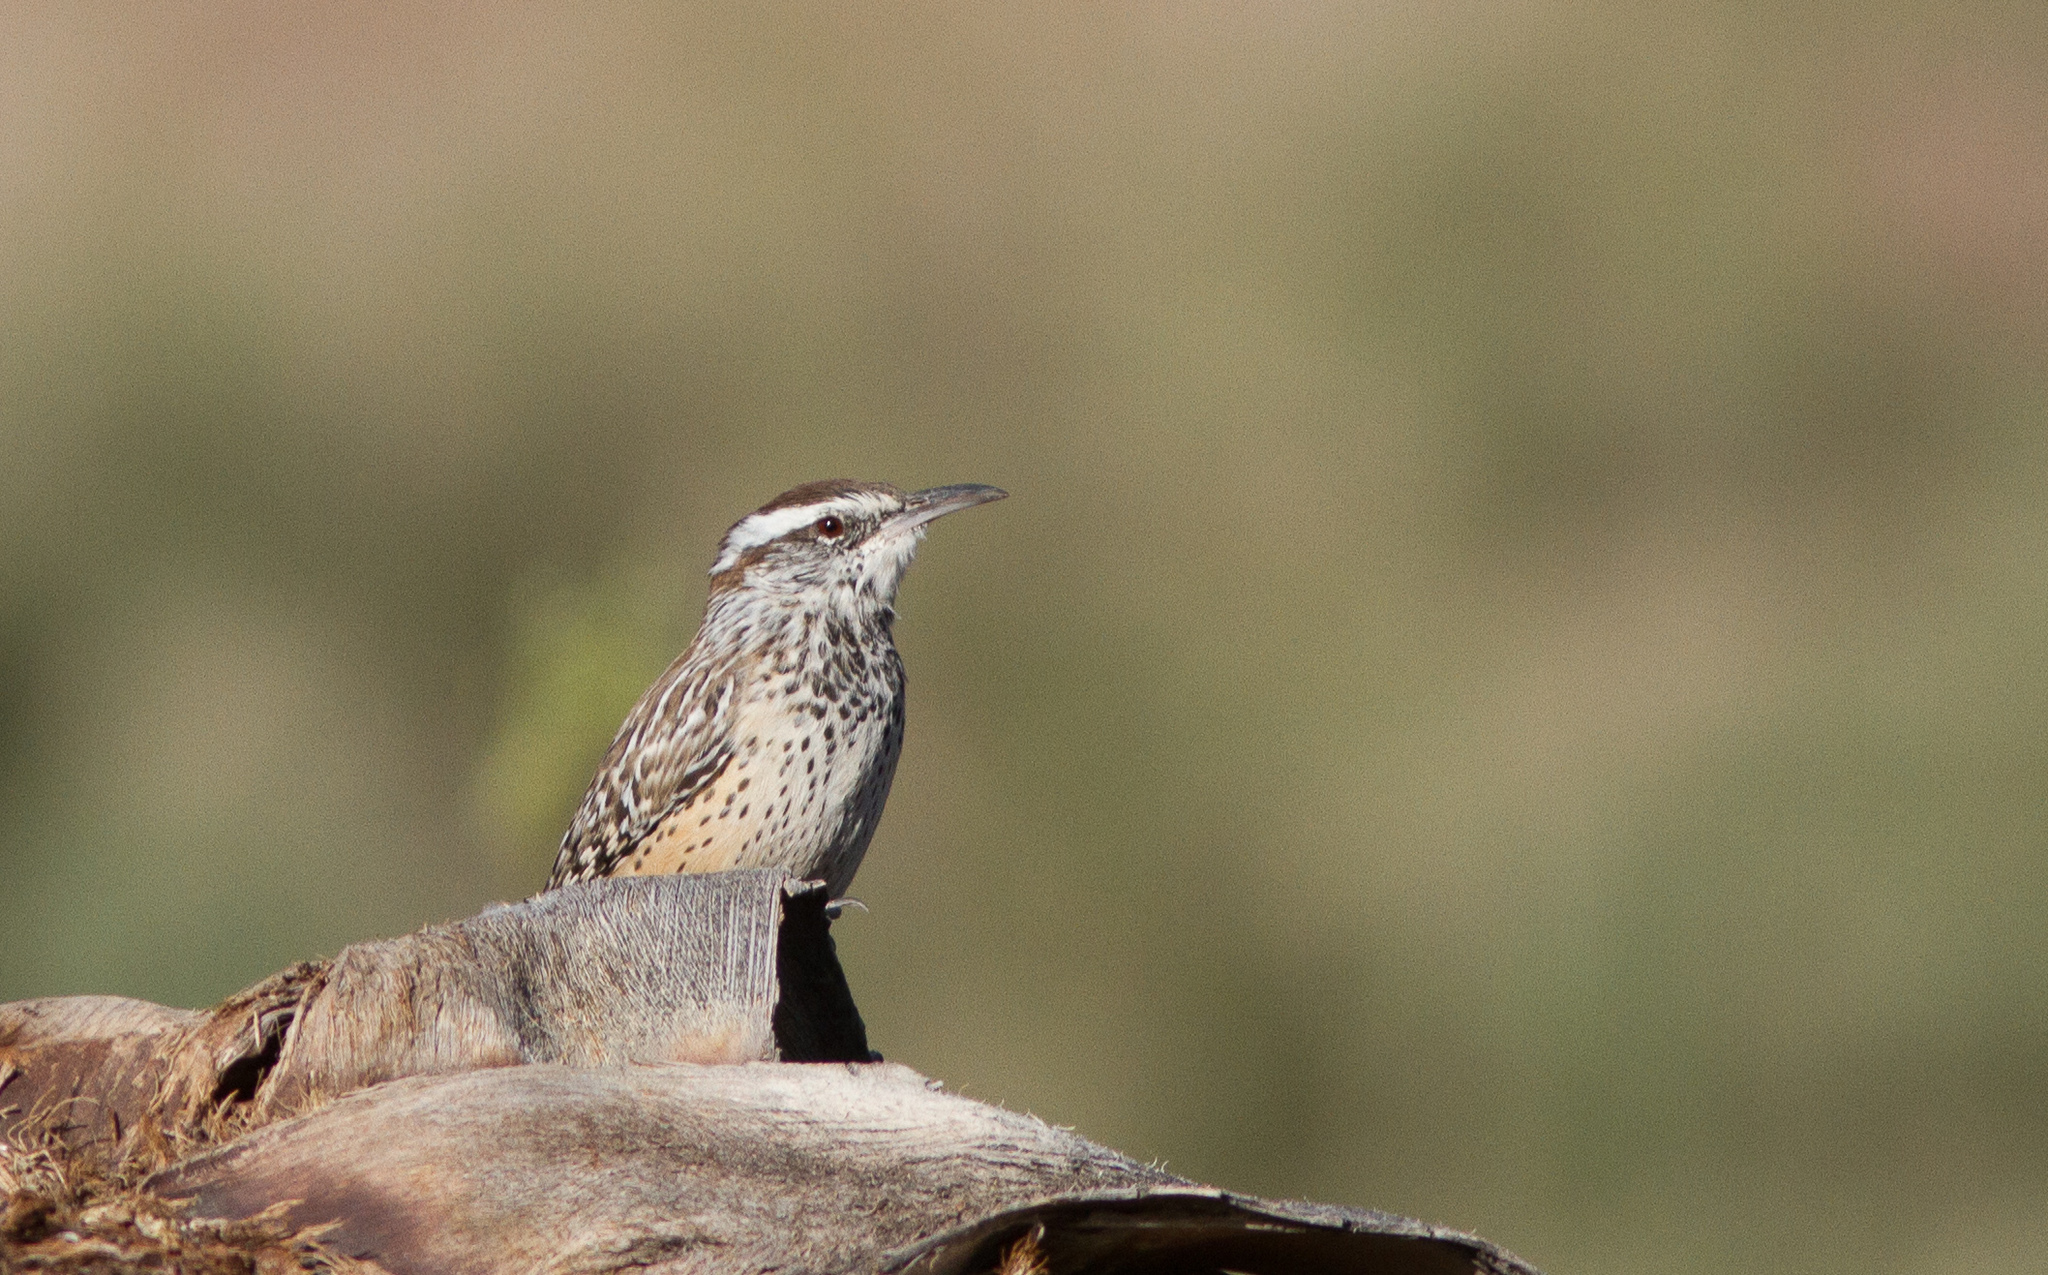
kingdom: Animalia
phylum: Chordata
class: Aves
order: Passeriformes
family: Troglodytidae
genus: Campylorhynchus
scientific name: Campylorhynchus brunneicapillus
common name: Cactus wren
